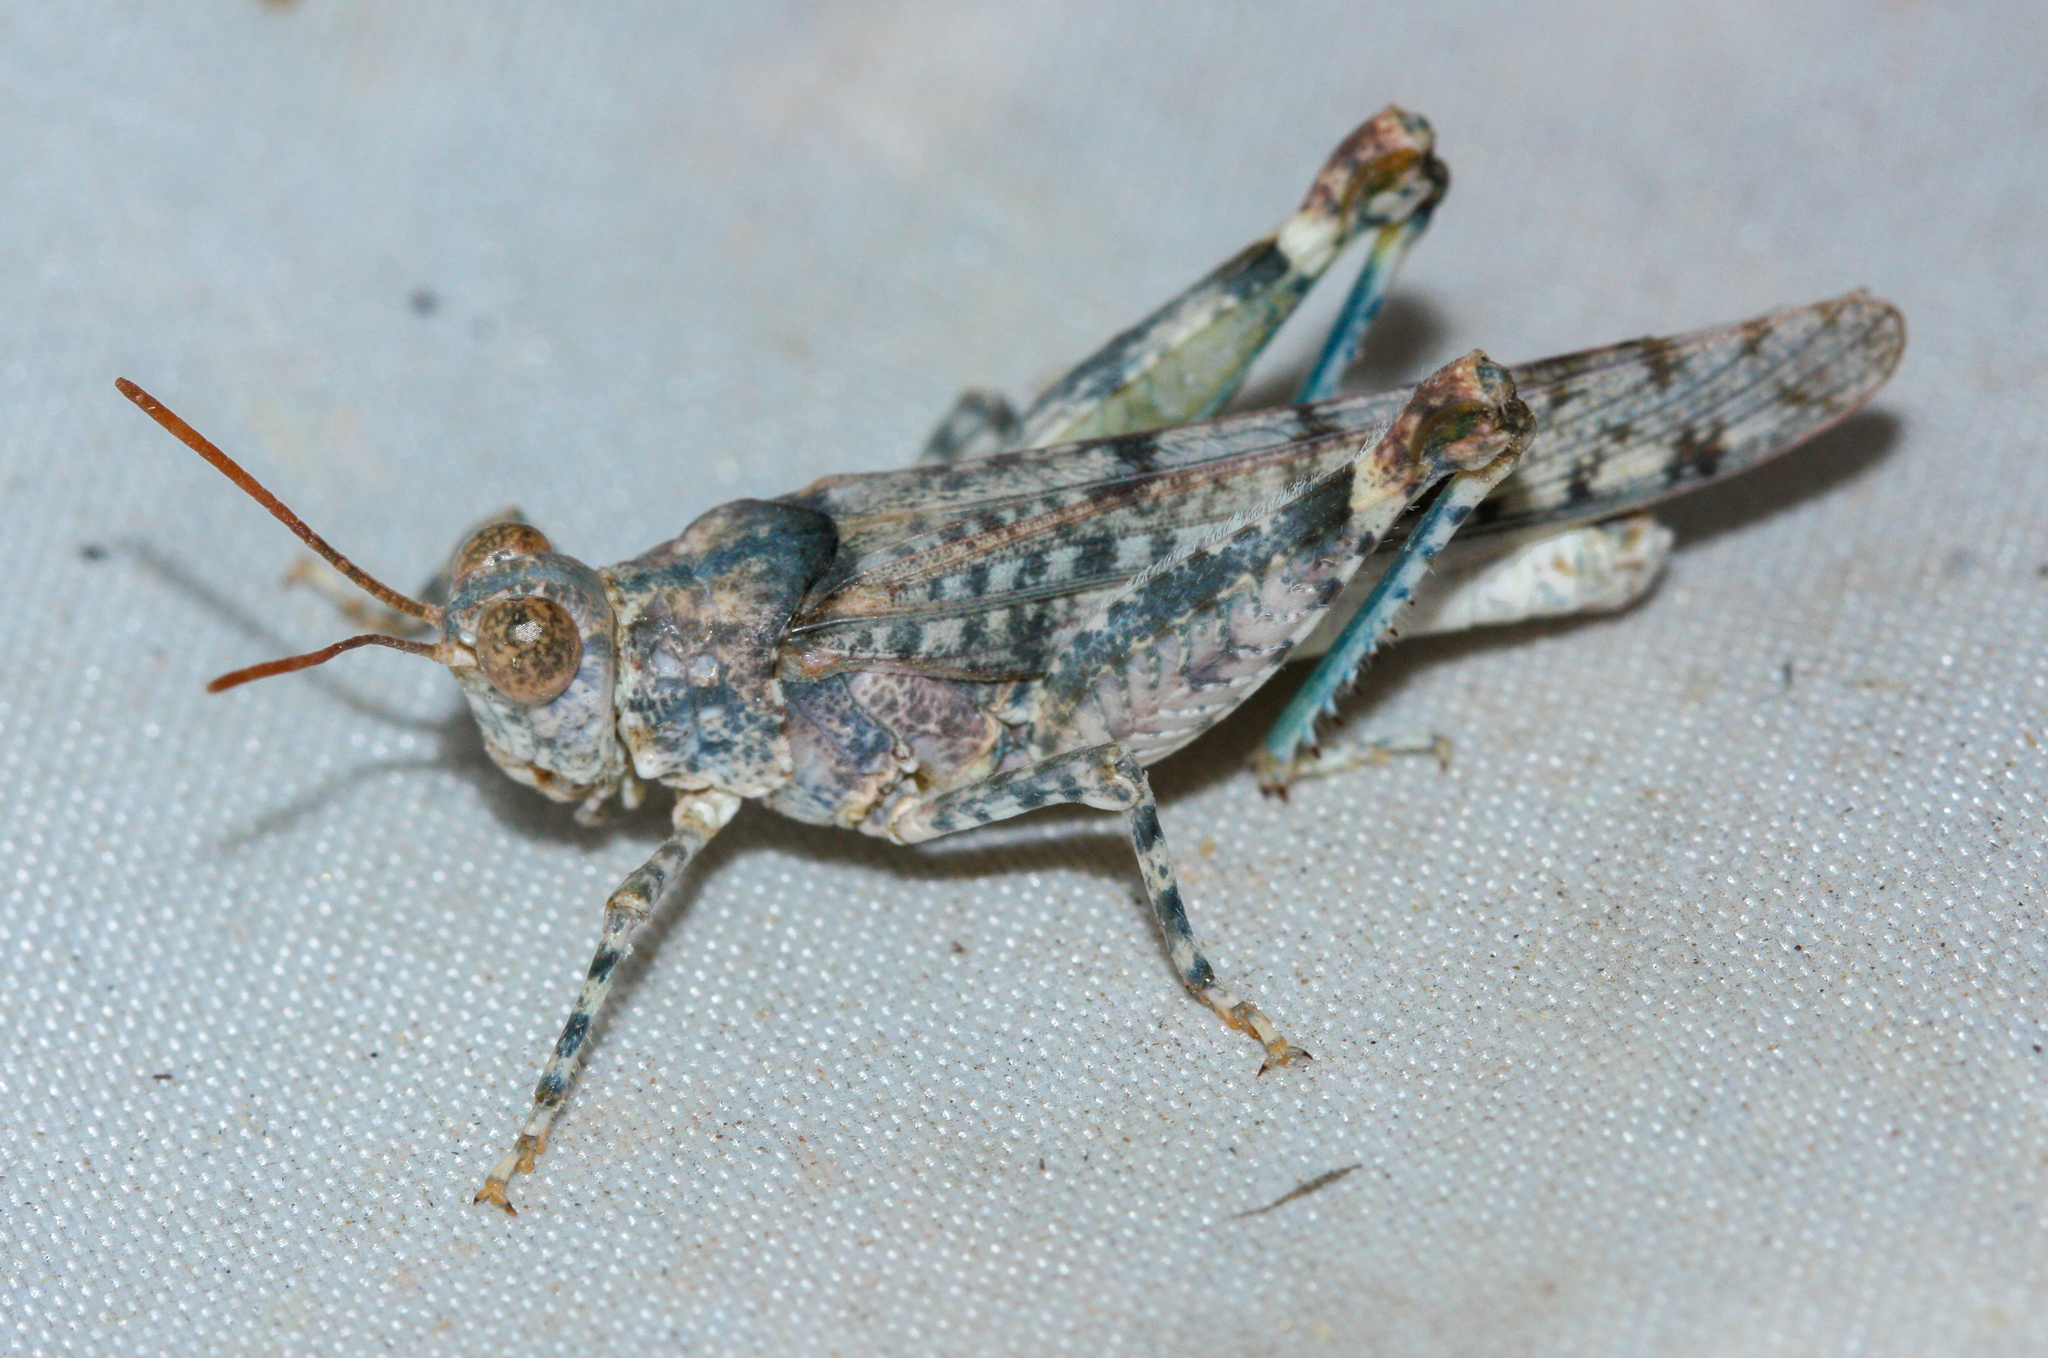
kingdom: Animalia
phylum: Arthropoda
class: Insecta
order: Orthoptera
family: Acrididae
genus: Cibolacris
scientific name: Cibolacris parviceps
